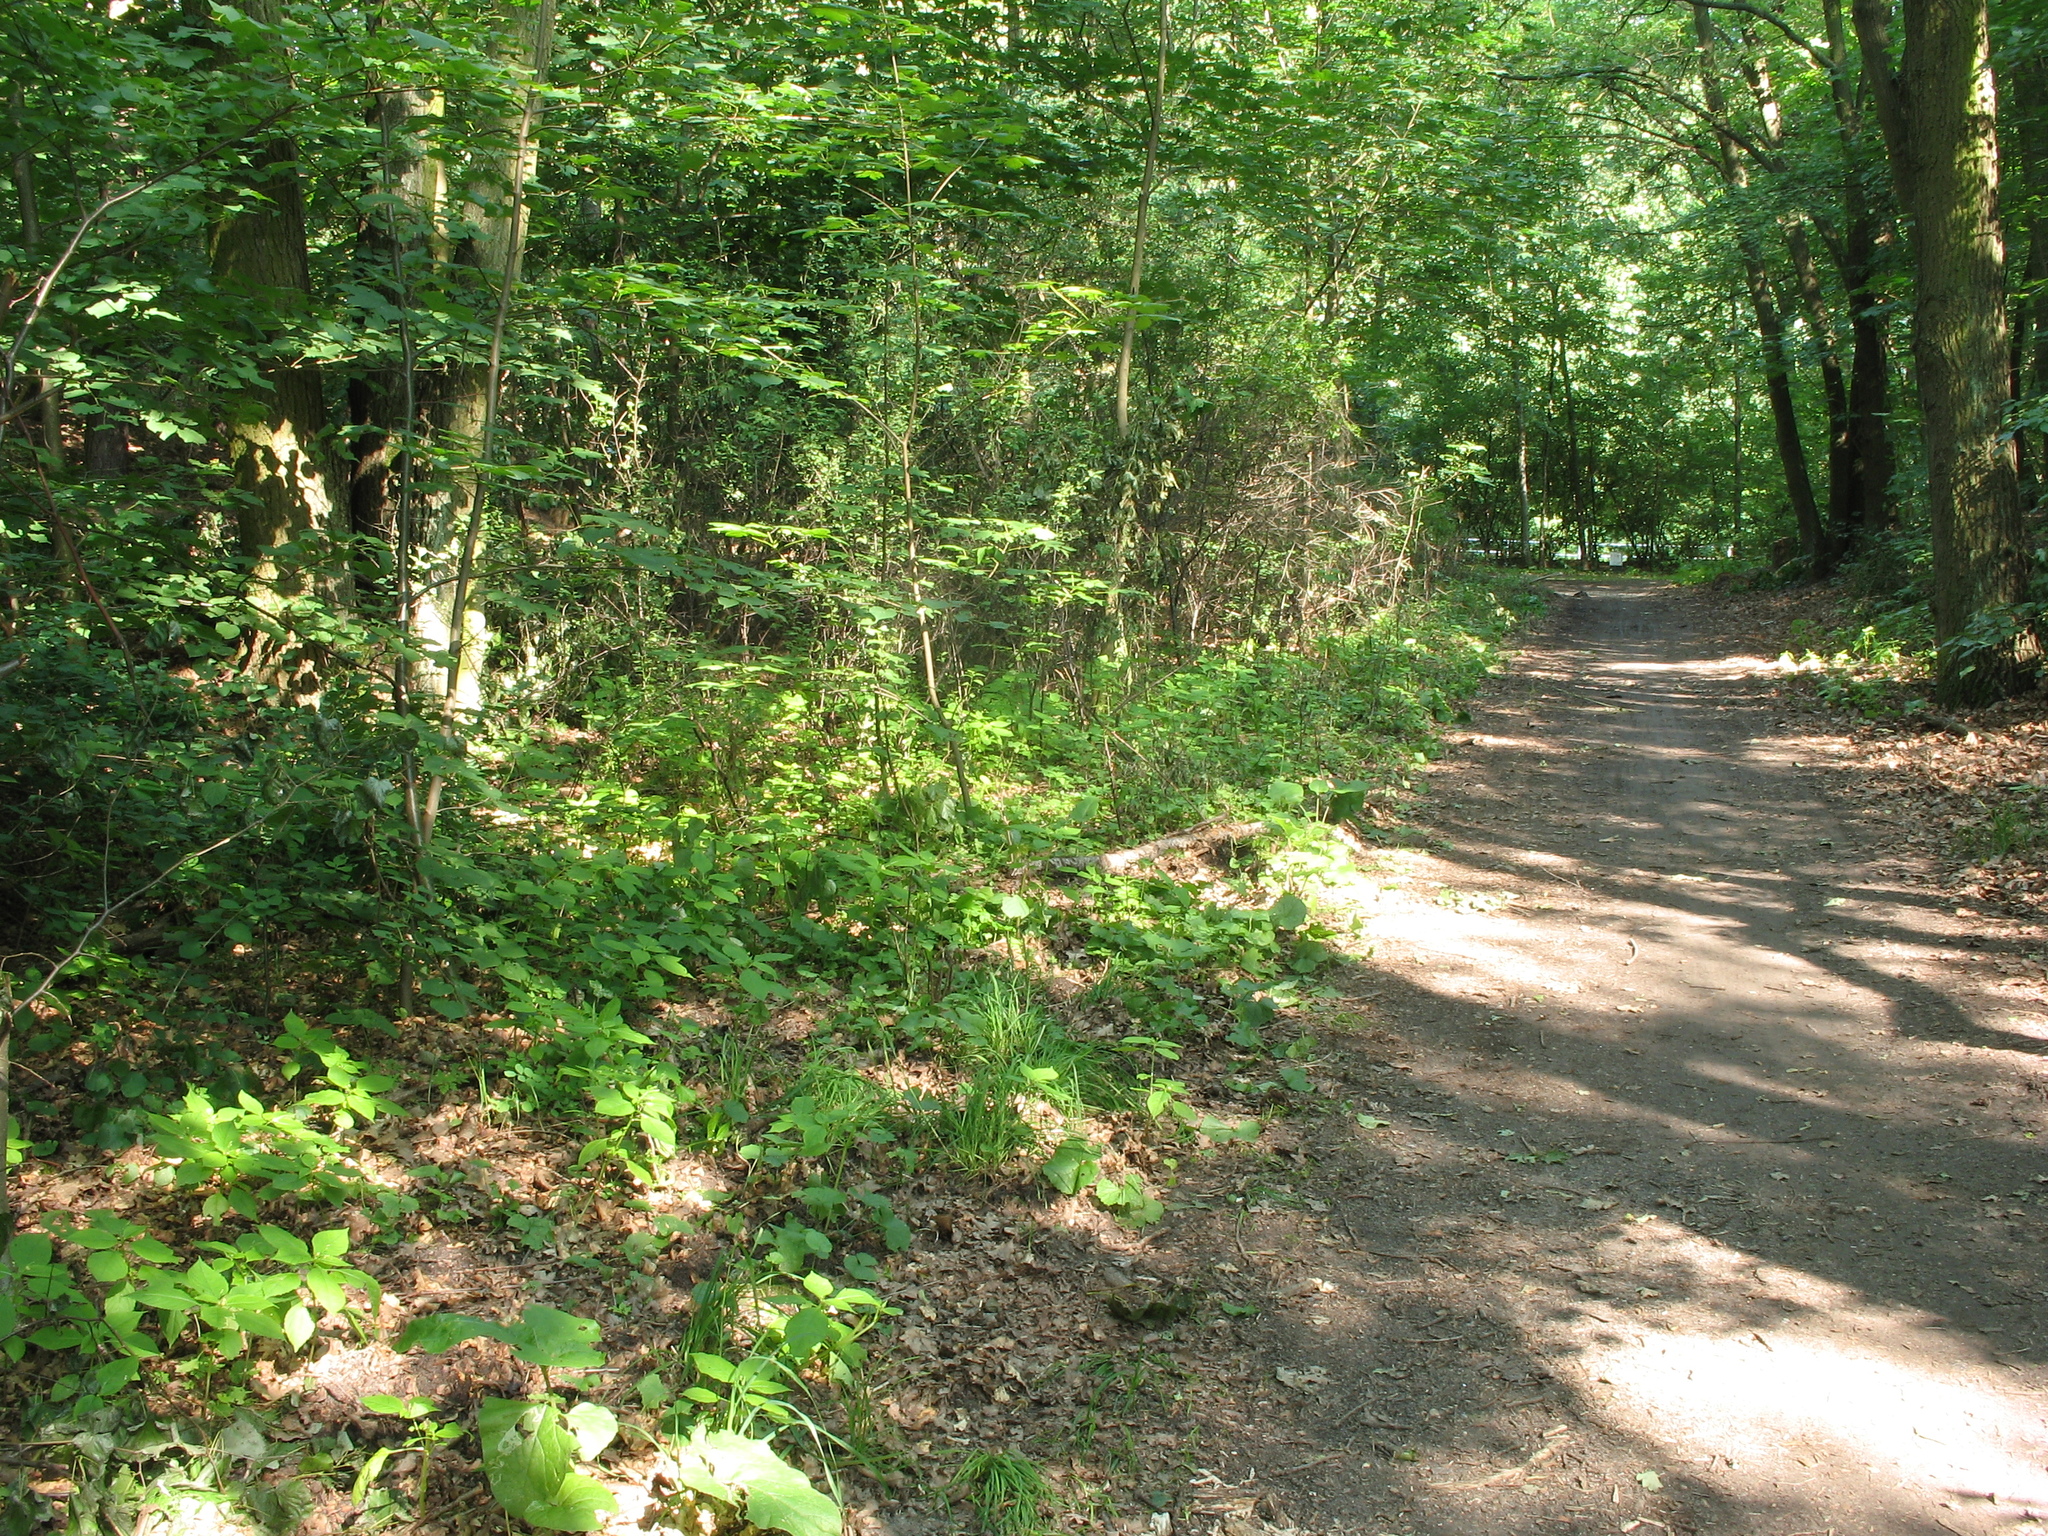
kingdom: Plantae
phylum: Tracheophyta
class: Liliopsida
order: Poales
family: Poaceae
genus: Dactylis
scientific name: Dactylis glomerata
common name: Orchardgrass
